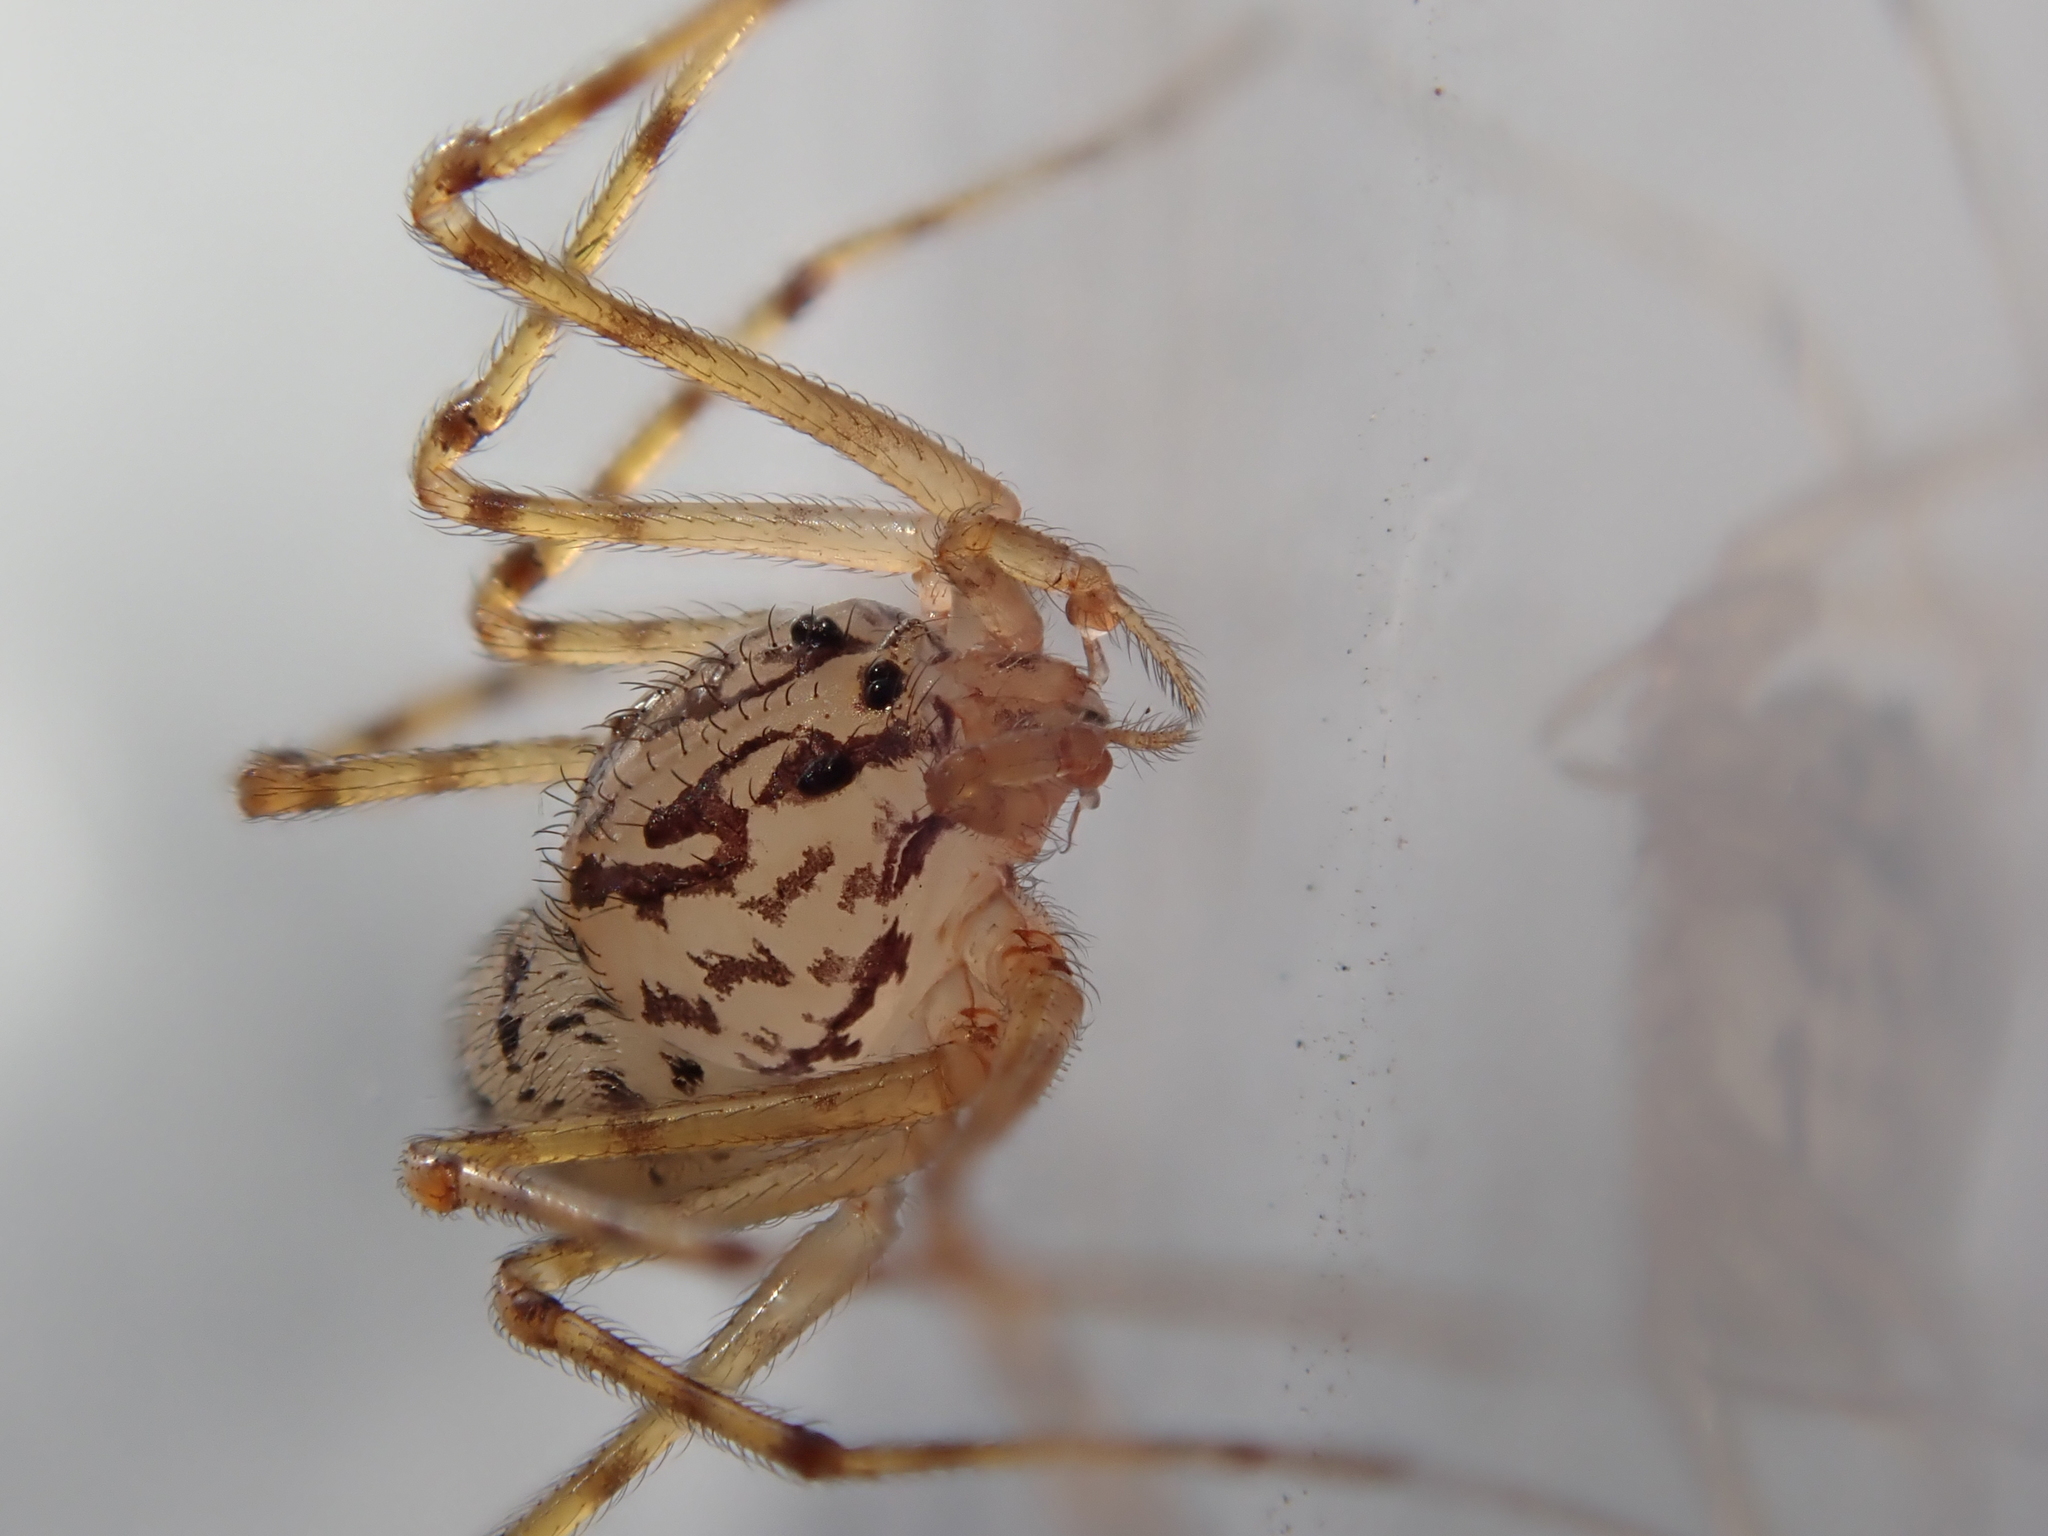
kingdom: Animalia
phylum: Arthropoda
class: Arachnida
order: Araneae
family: Scytodidae
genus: Scytodes
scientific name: Scytodes thoracica
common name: Spitting spider
